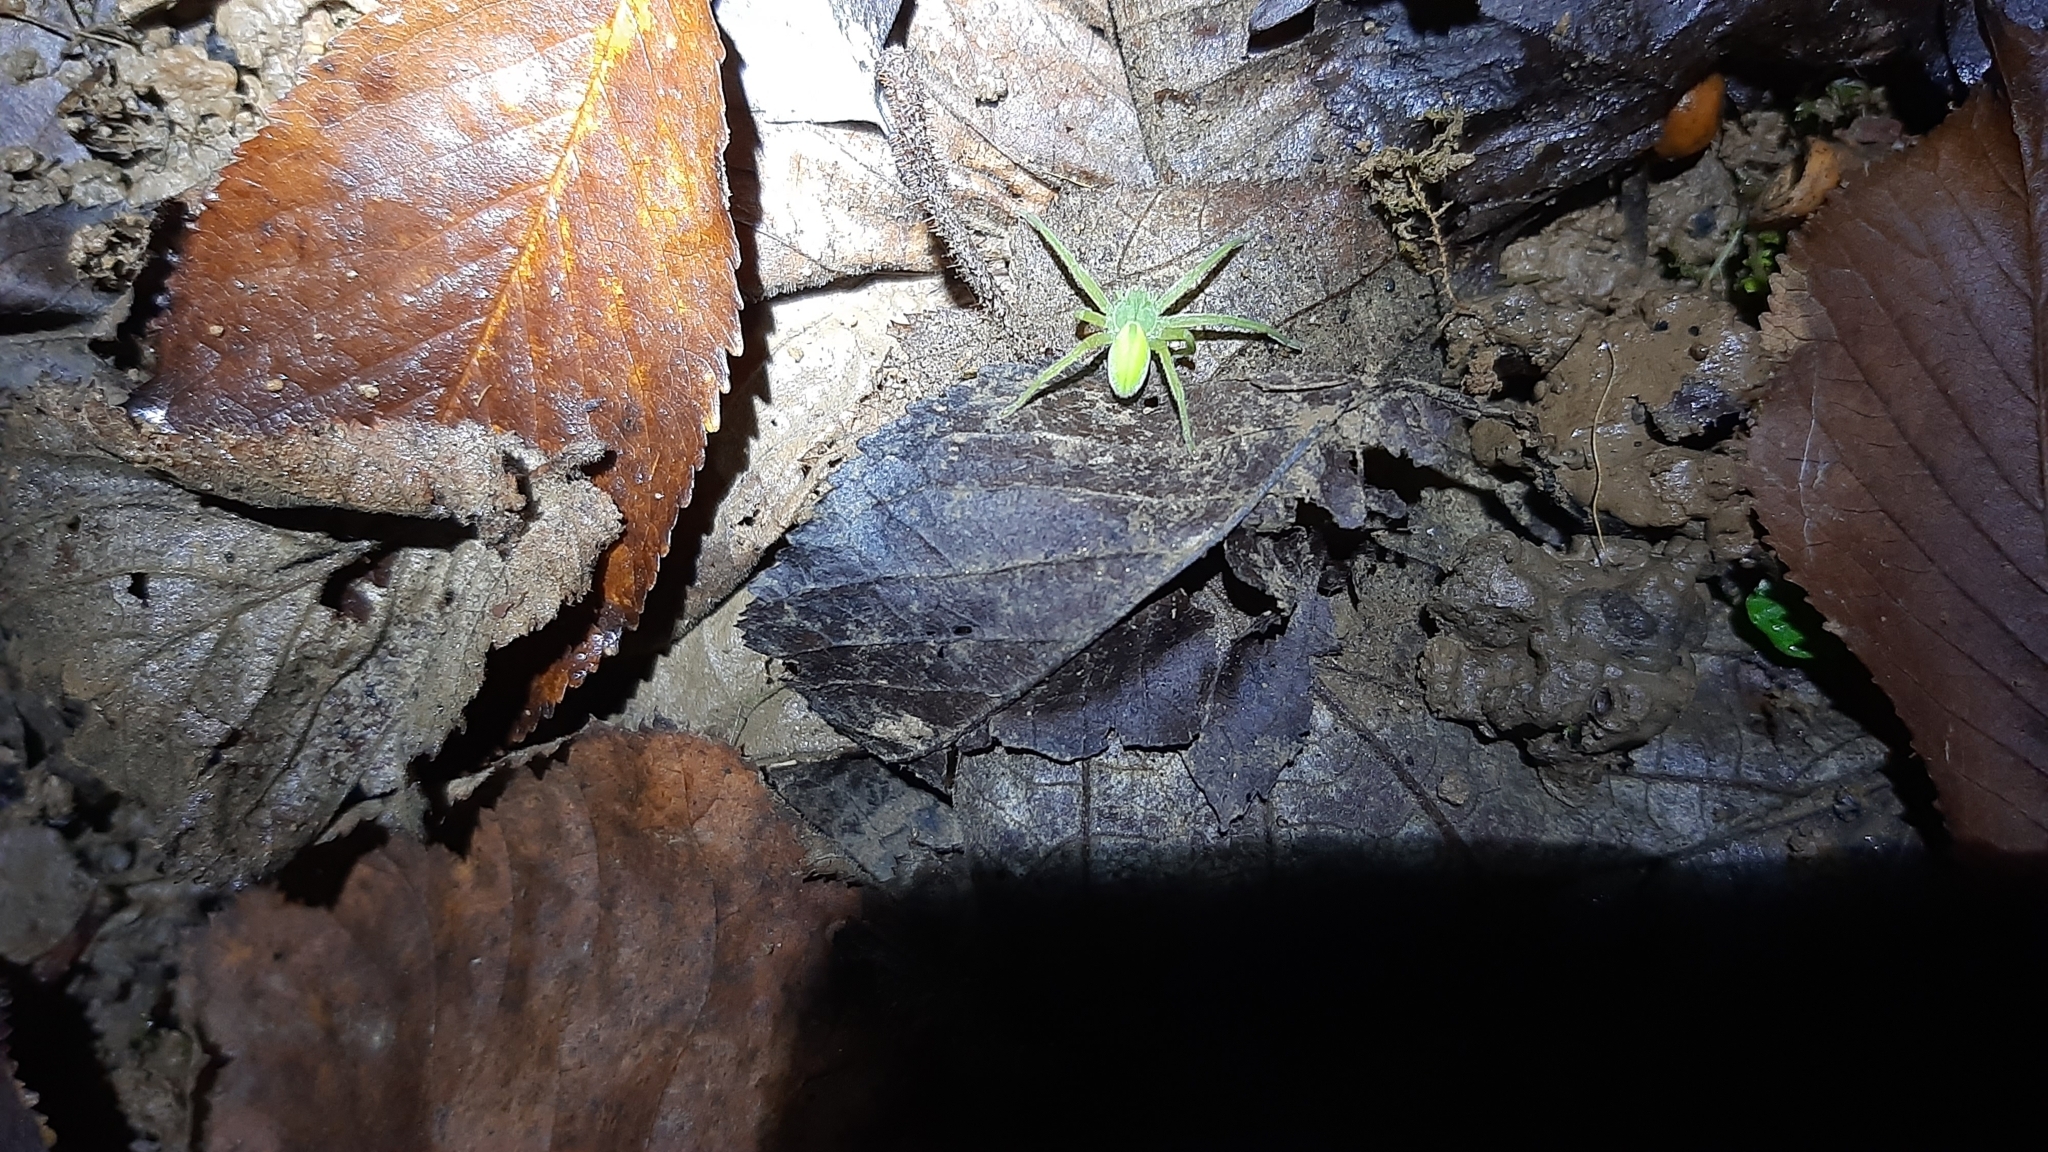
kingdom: Animalia
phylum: Arthropoda
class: Arachnida
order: Araneae
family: Sparassidae
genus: Micrommata
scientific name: Micrommata virescens
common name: Green spider
